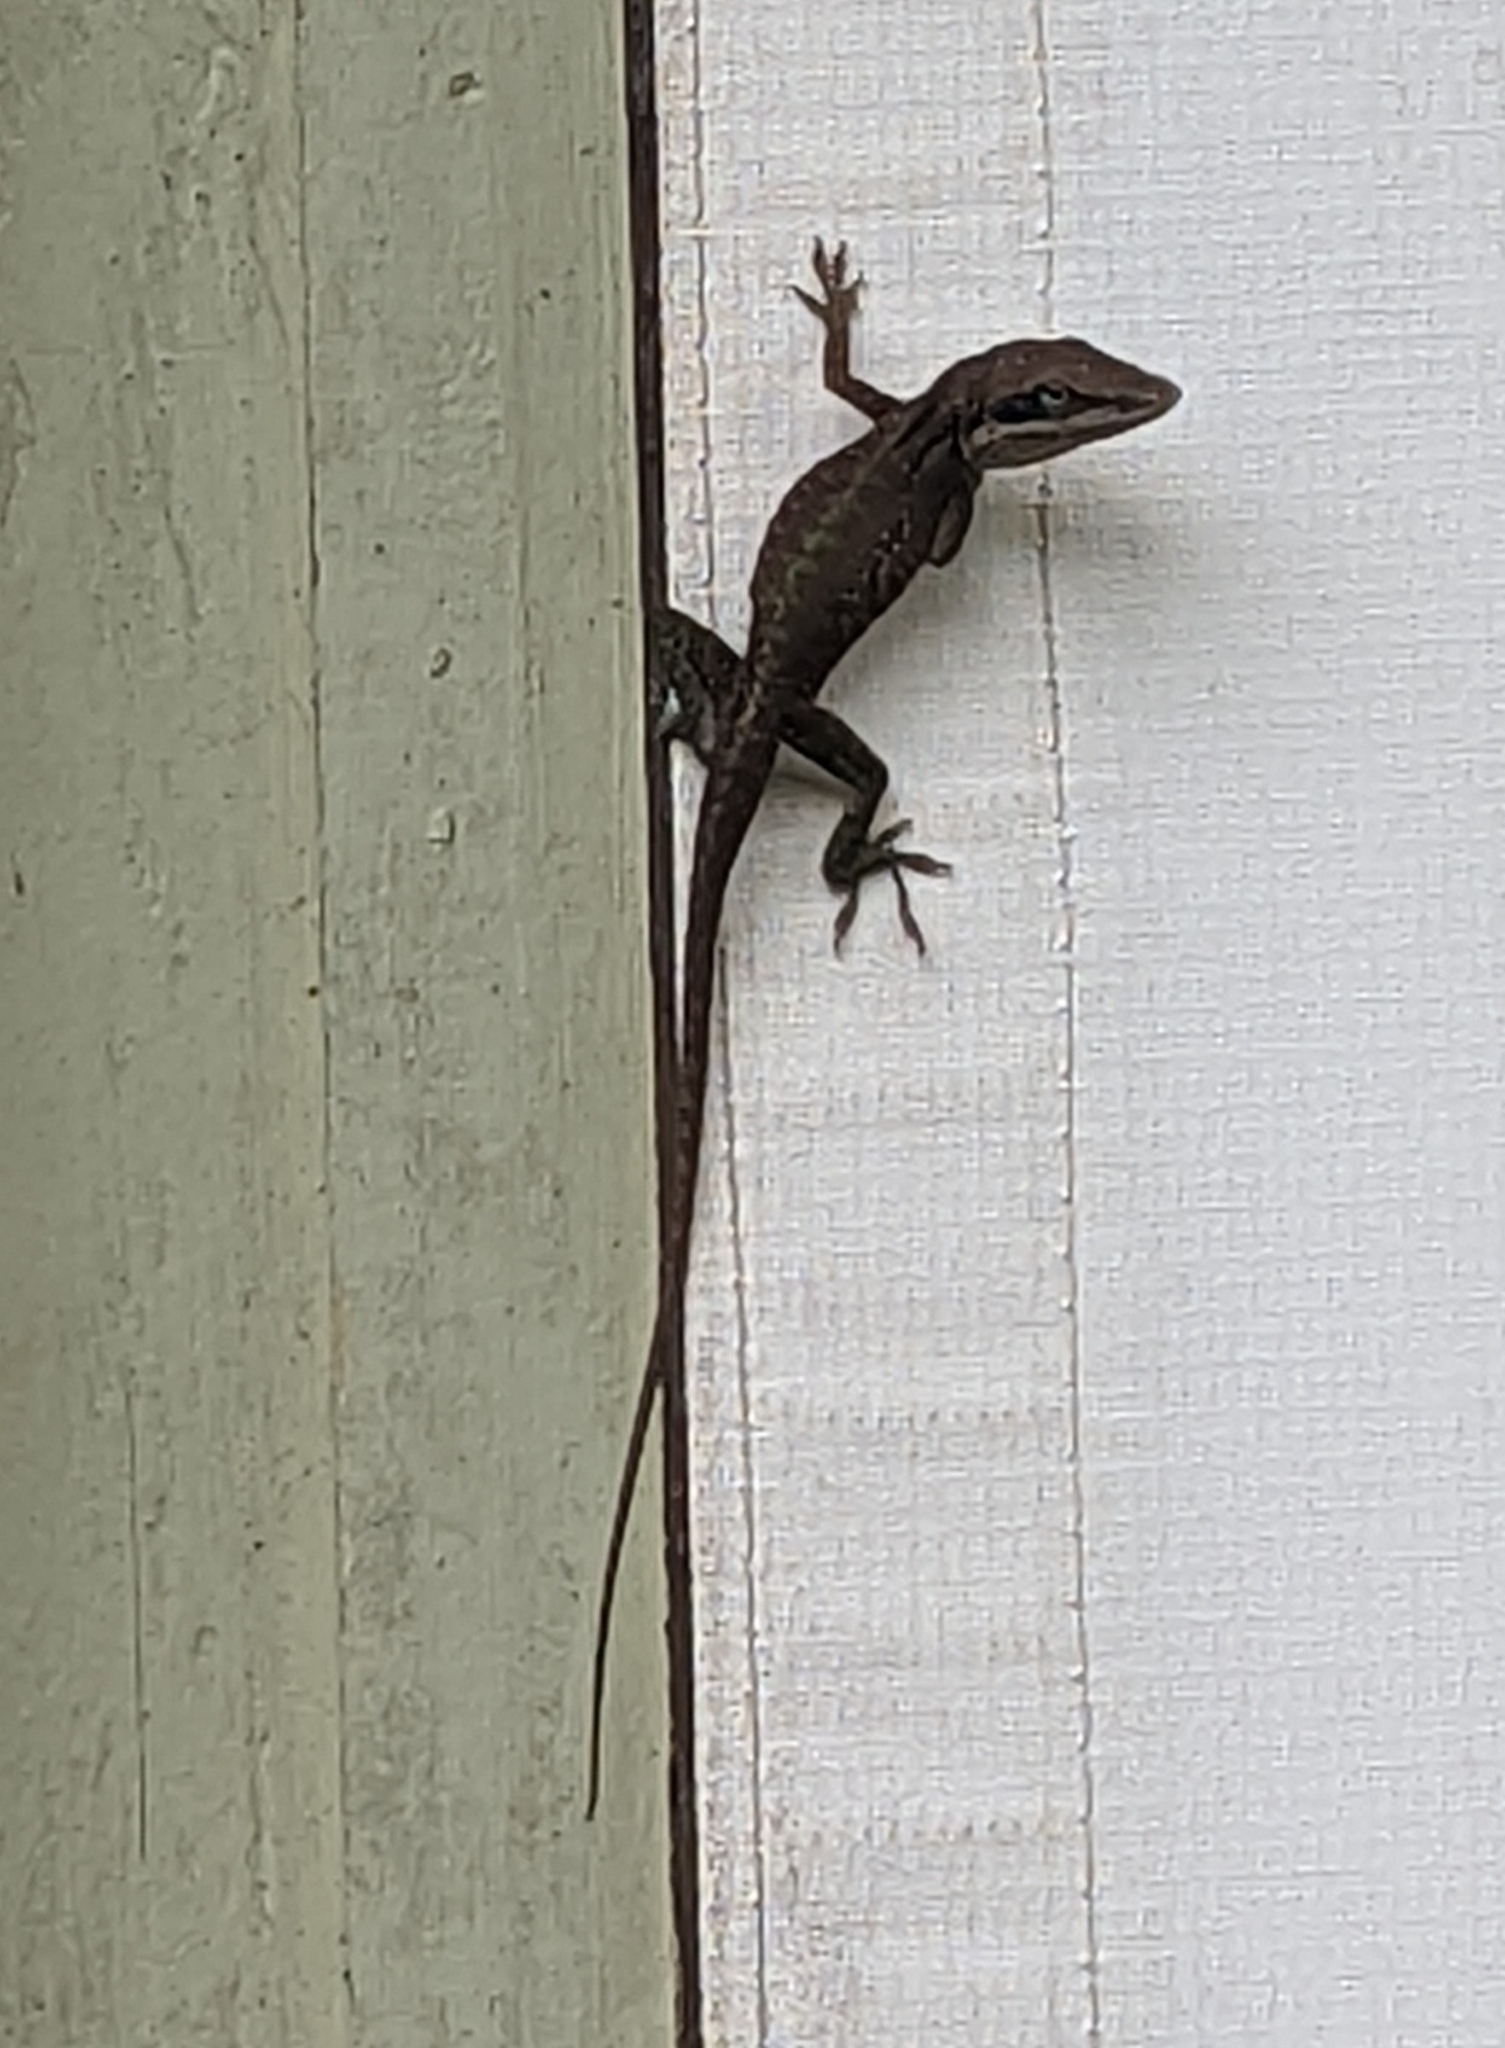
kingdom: Animalia
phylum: Chordata
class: Squamata
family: Dactyloidae
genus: Anolis
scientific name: Anolis carolinensis
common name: Green anole
